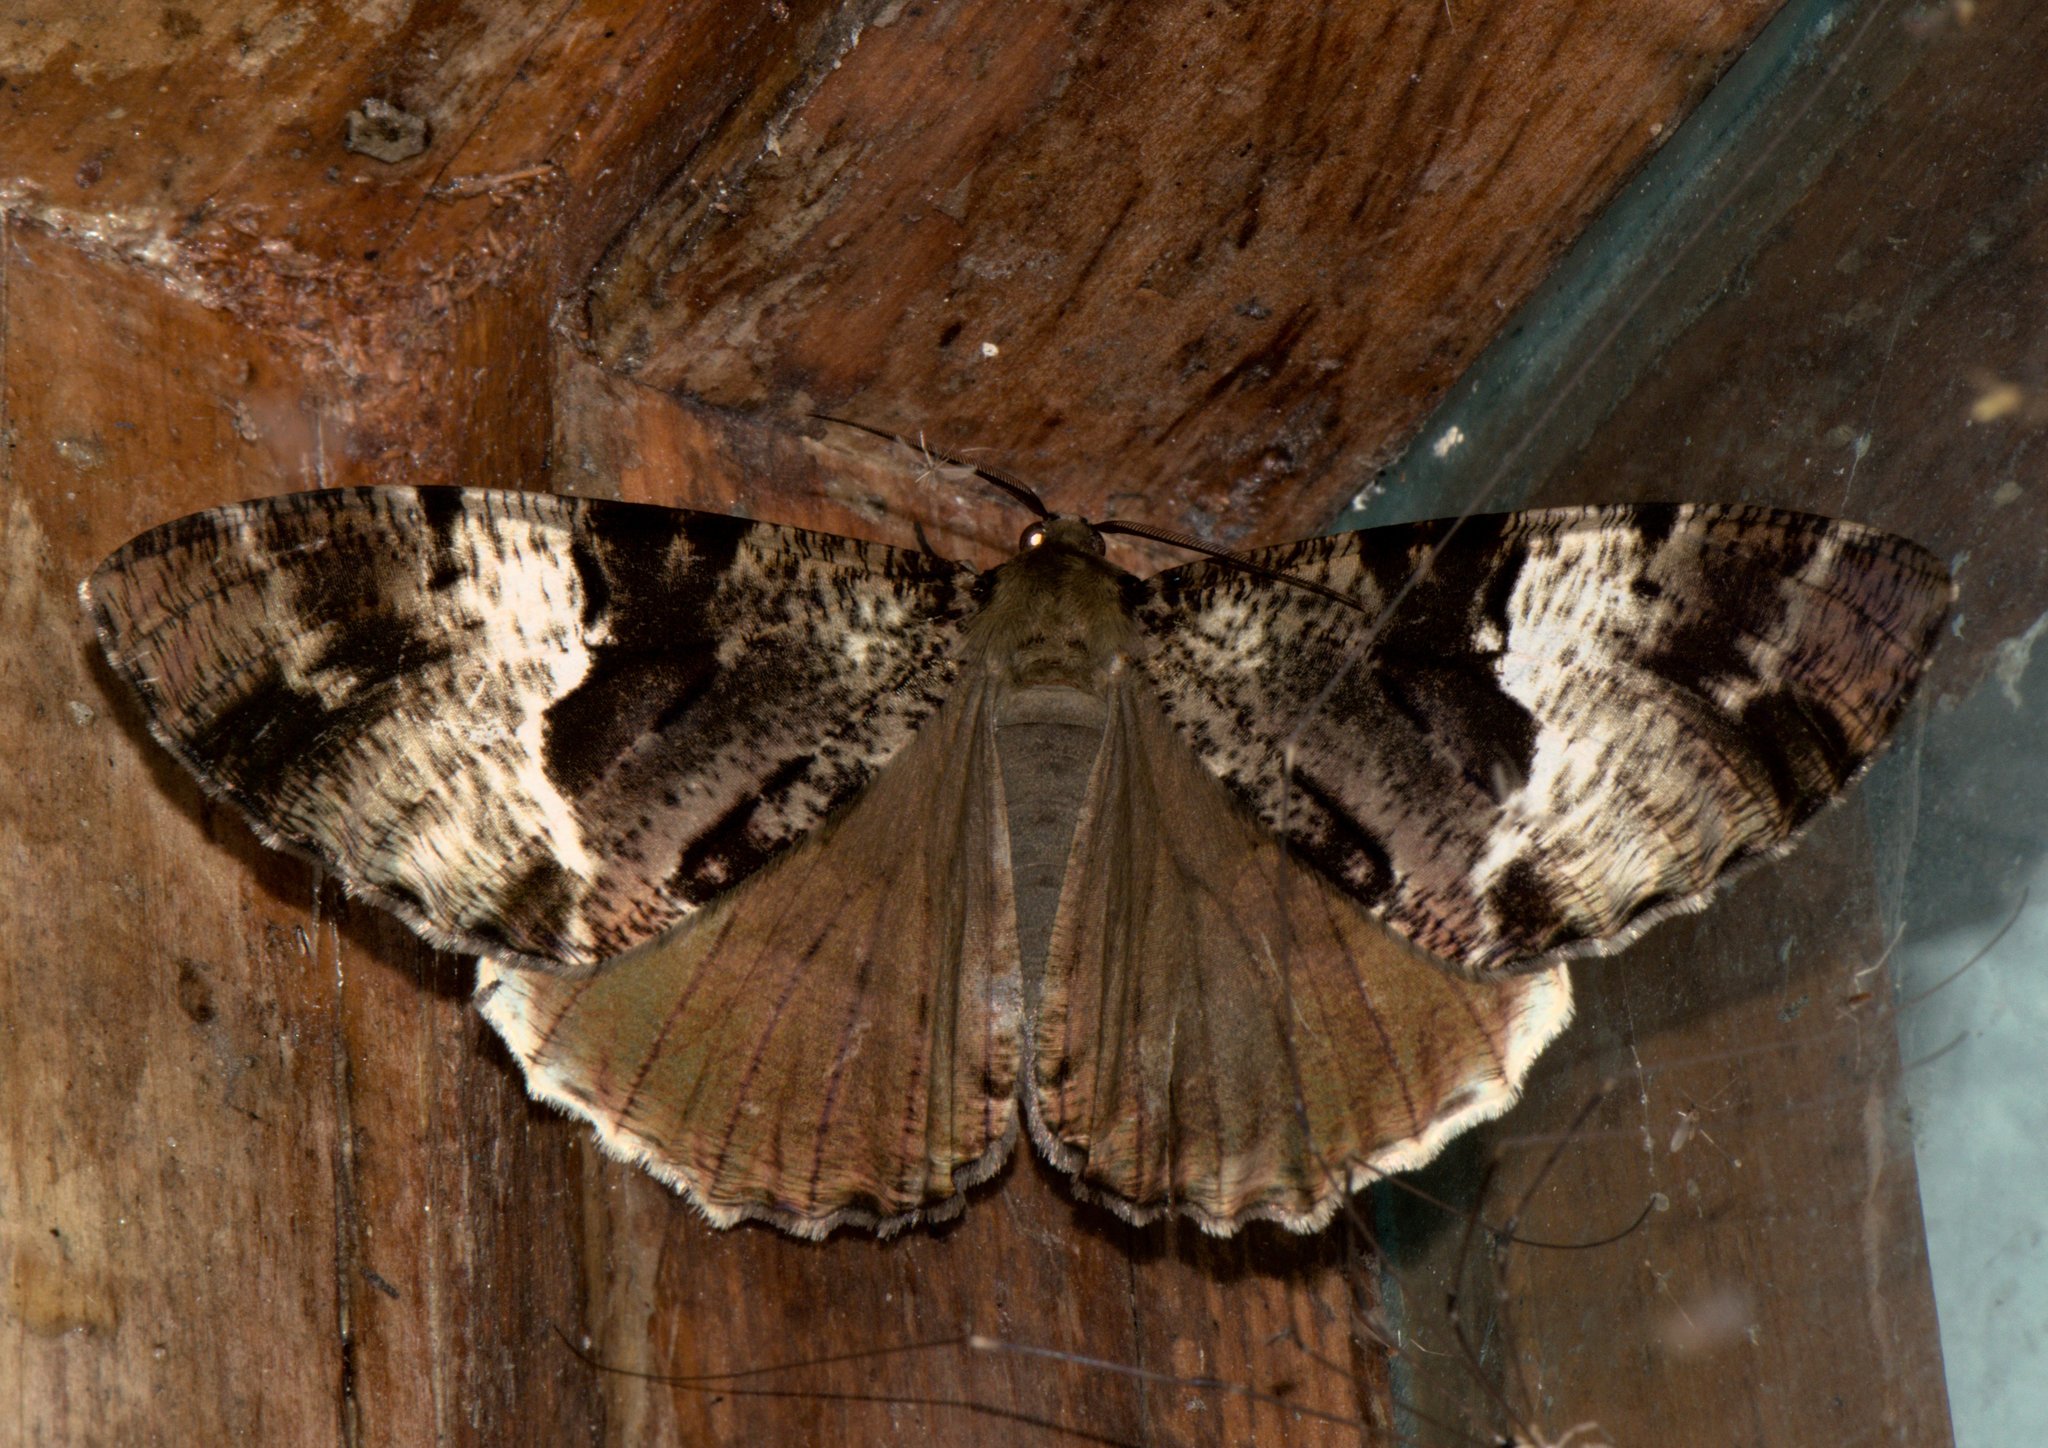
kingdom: Animalia
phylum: Arthropoda
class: Insecta
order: Lepidoptera
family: Geometridae
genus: Xandrames
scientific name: Xandrames dholaria
